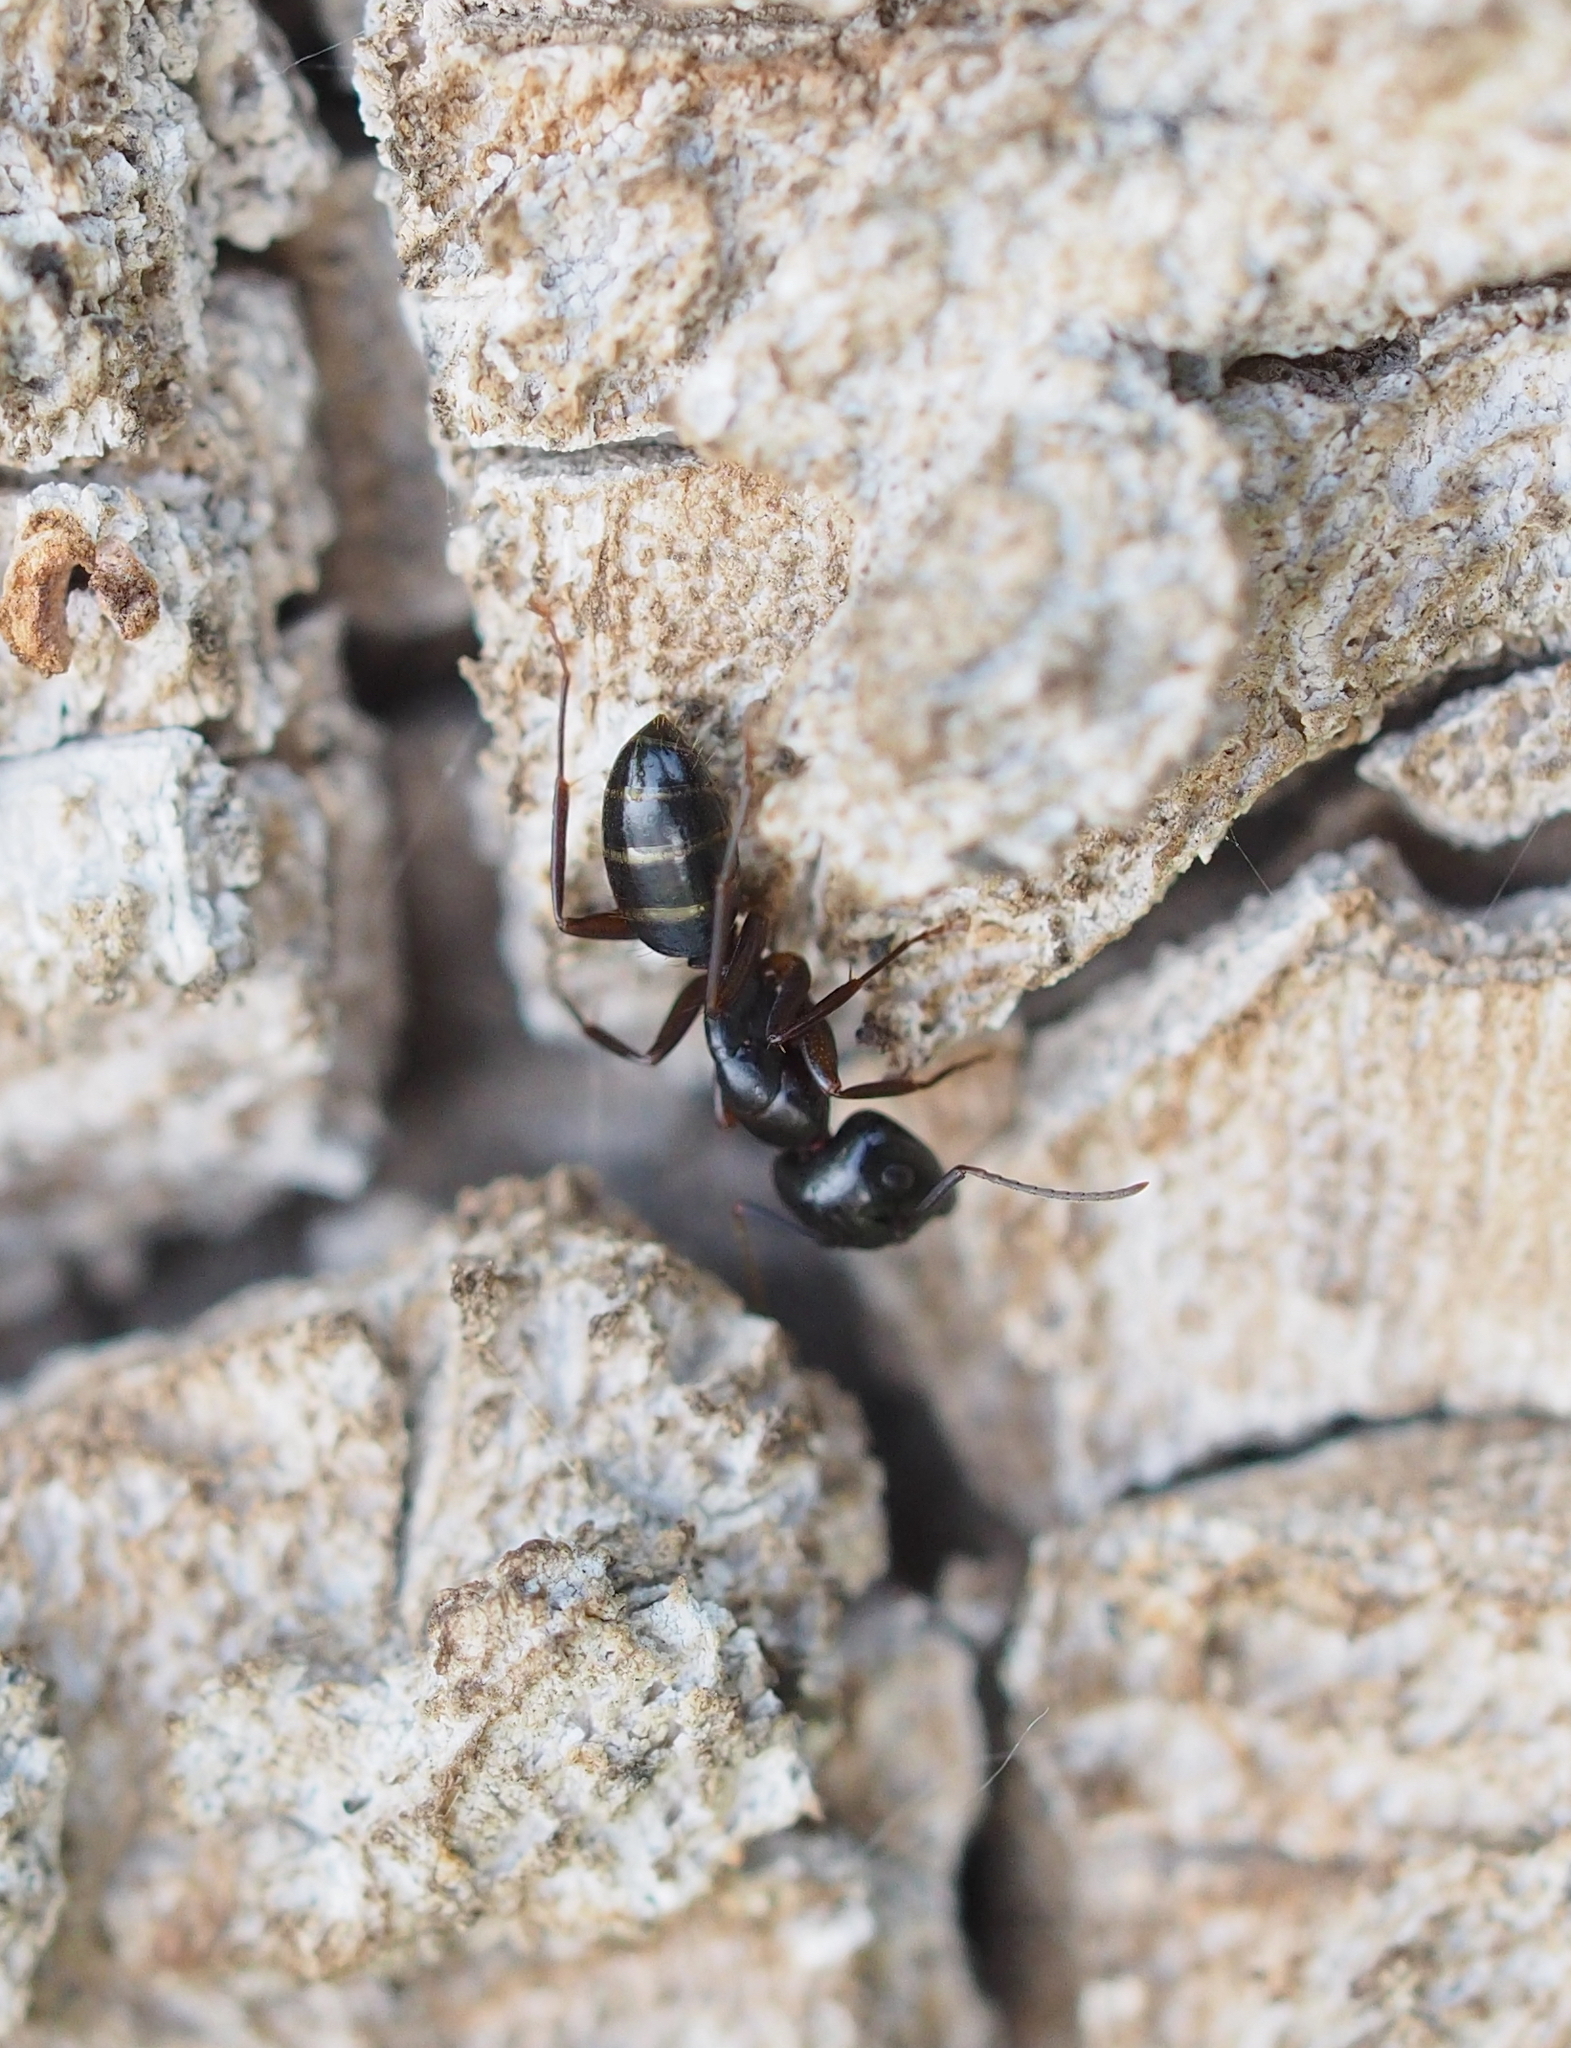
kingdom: Animalia
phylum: Arthropoda
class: Insecta
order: Hymenoptera
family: Formicidae
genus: Camponotus
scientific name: Camponotus fallax
